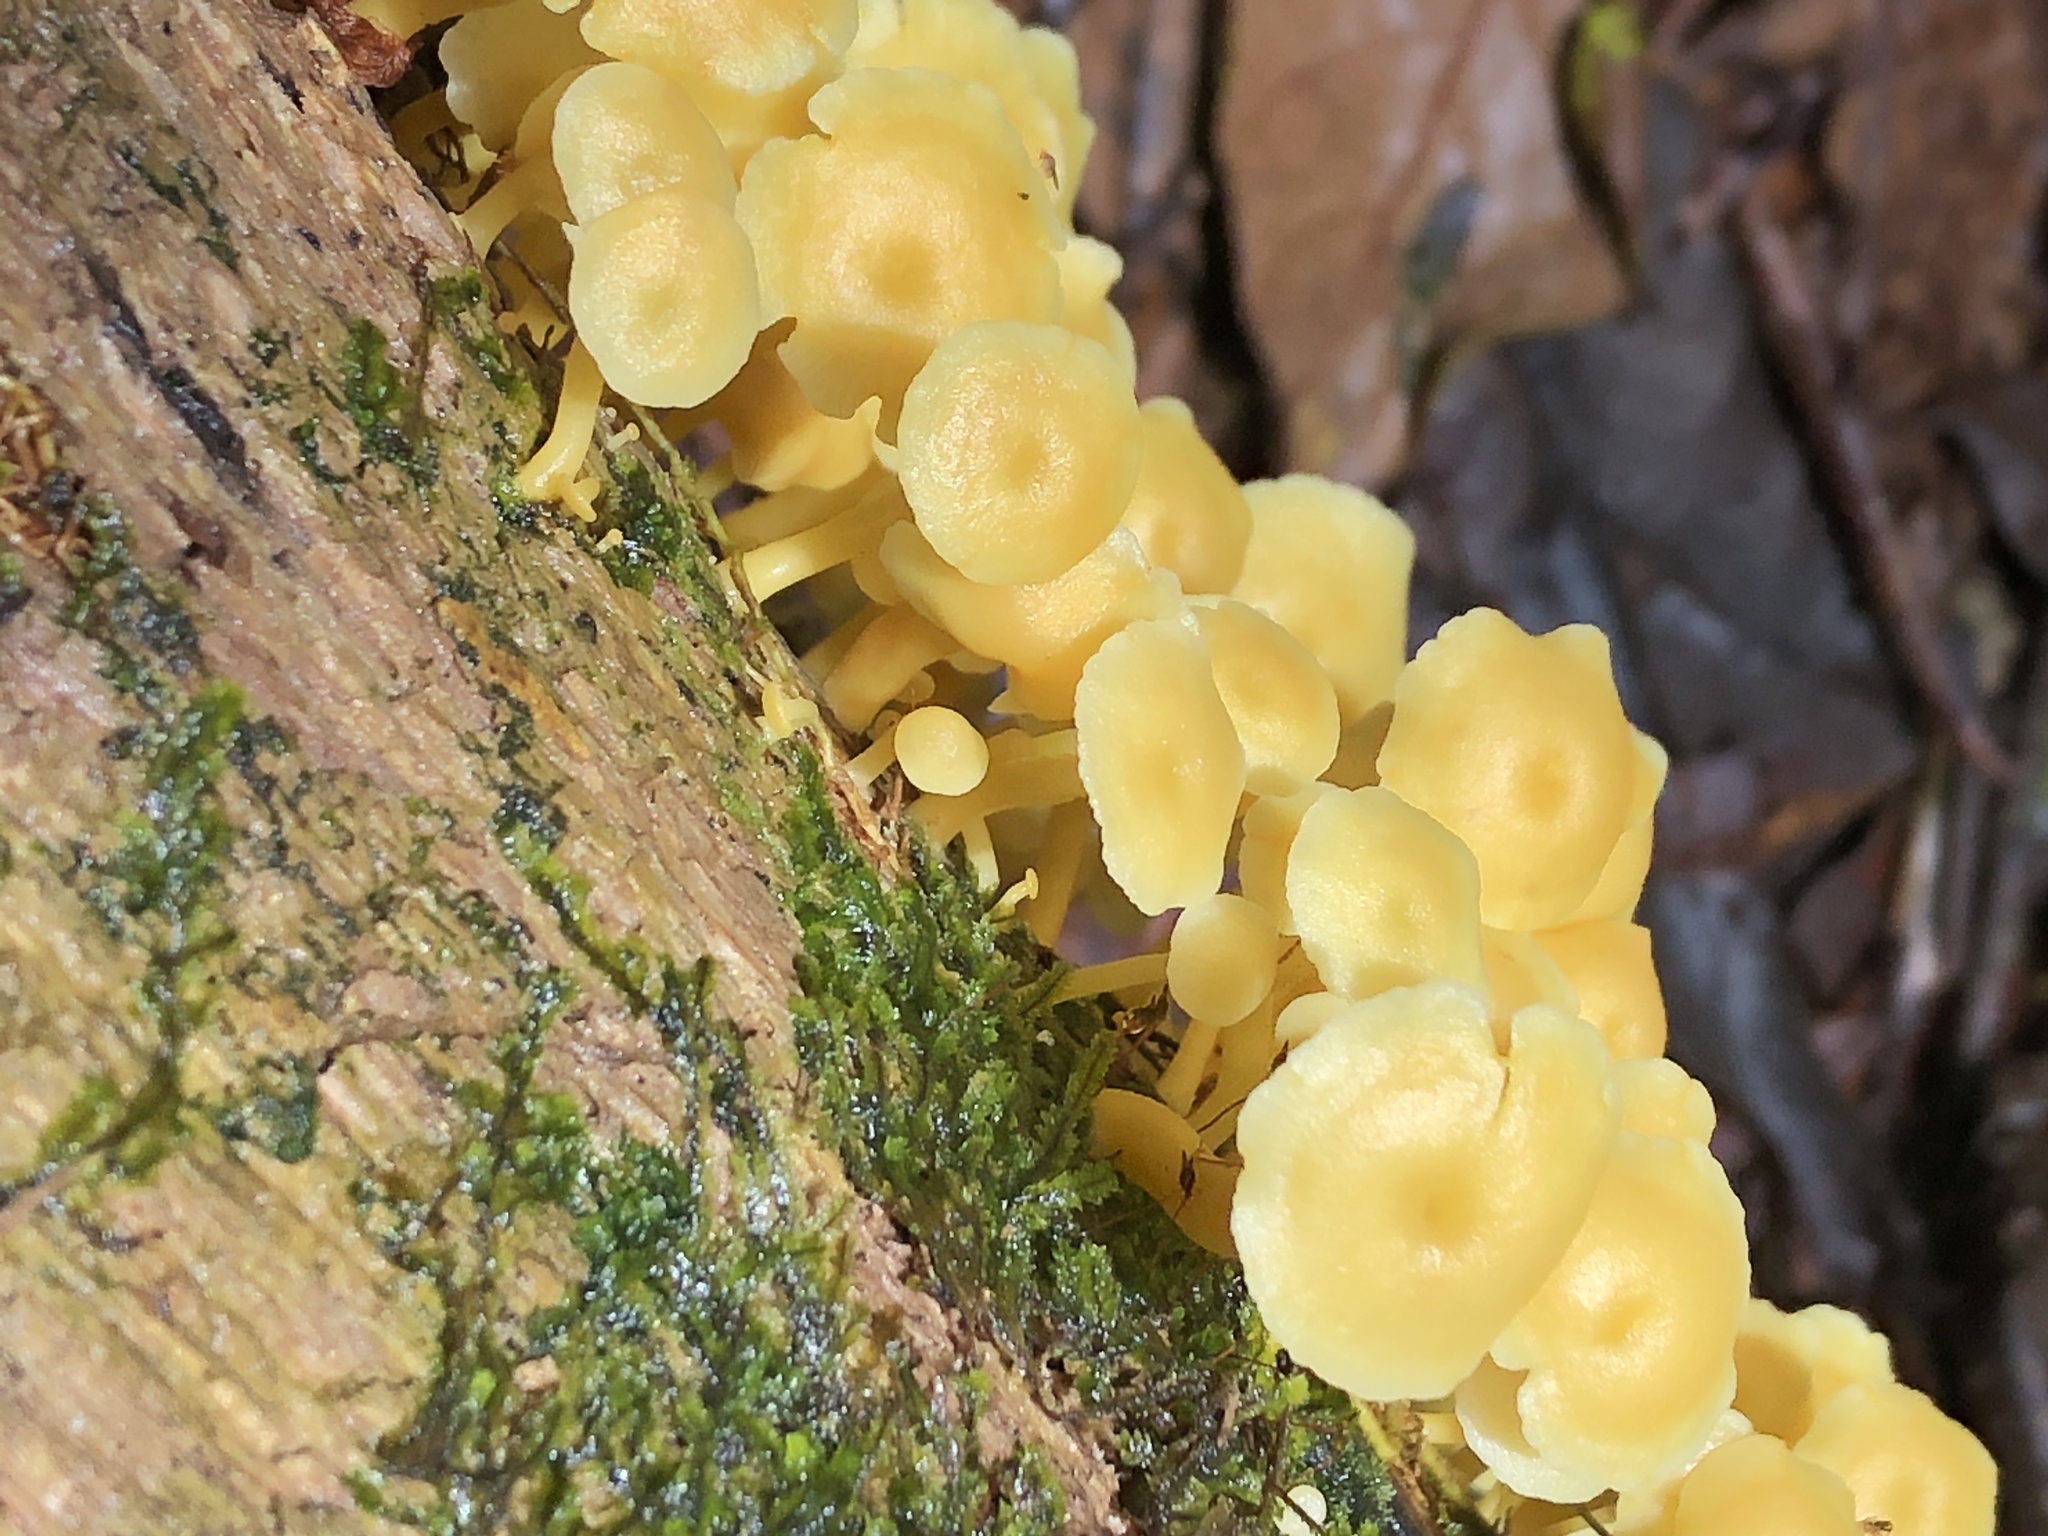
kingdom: Fungi
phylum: Basidiomycota
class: Agaricomycetes
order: Agaricales
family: Tricholomataceae
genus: Tricholomopsis
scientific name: Tricholomopsis aurea
